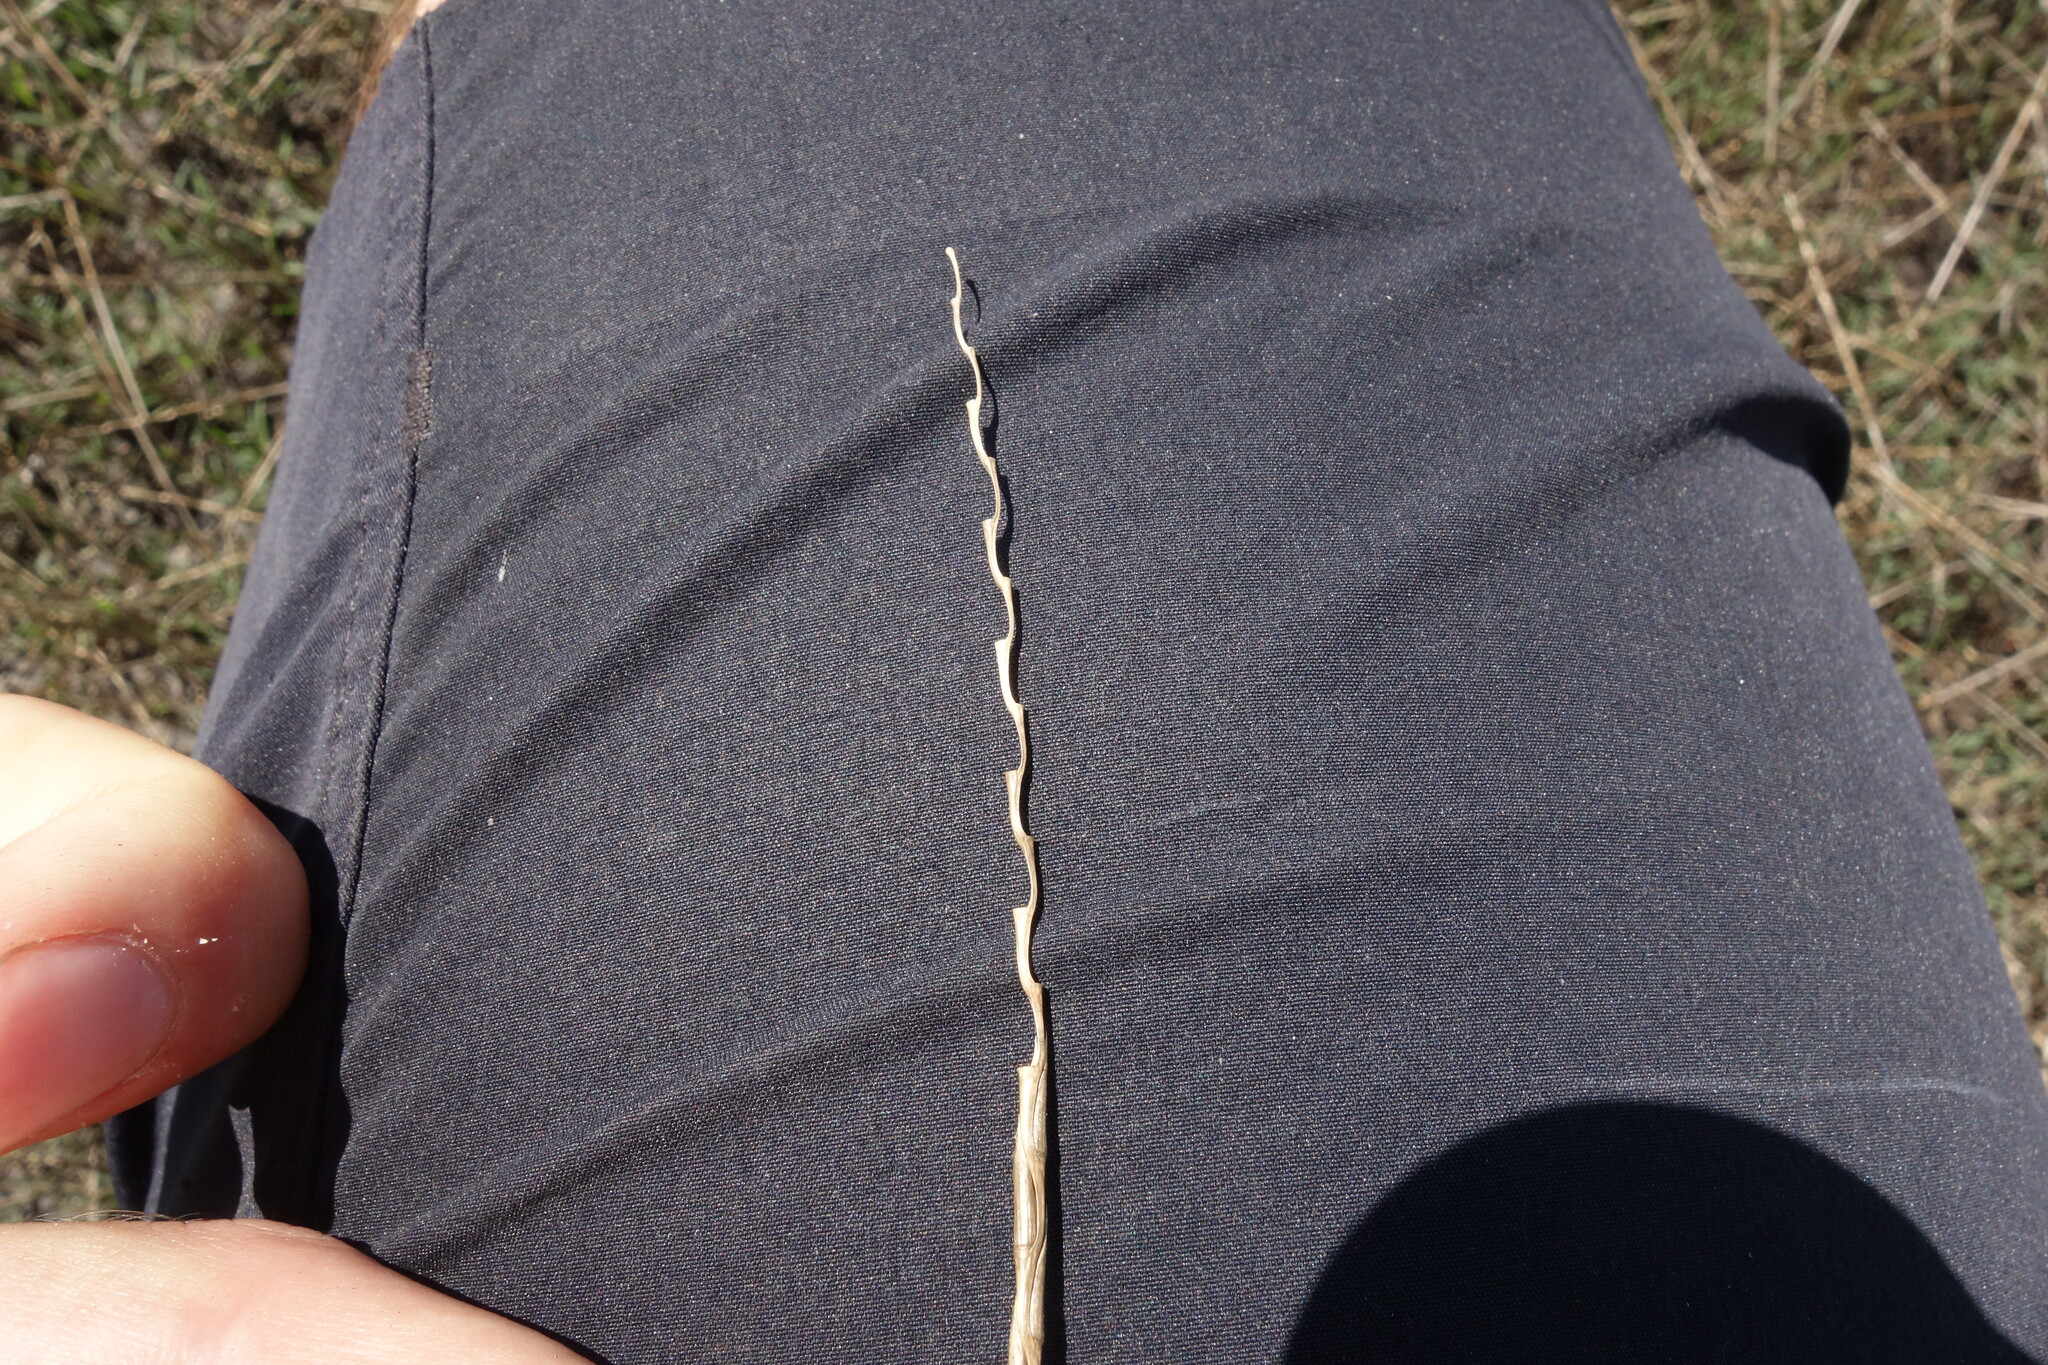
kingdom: Plantae
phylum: Tracheophyta
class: Liliopsida
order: Poales
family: Poaceae
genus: Pholiurus
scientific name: Pholiurus pannonicus
